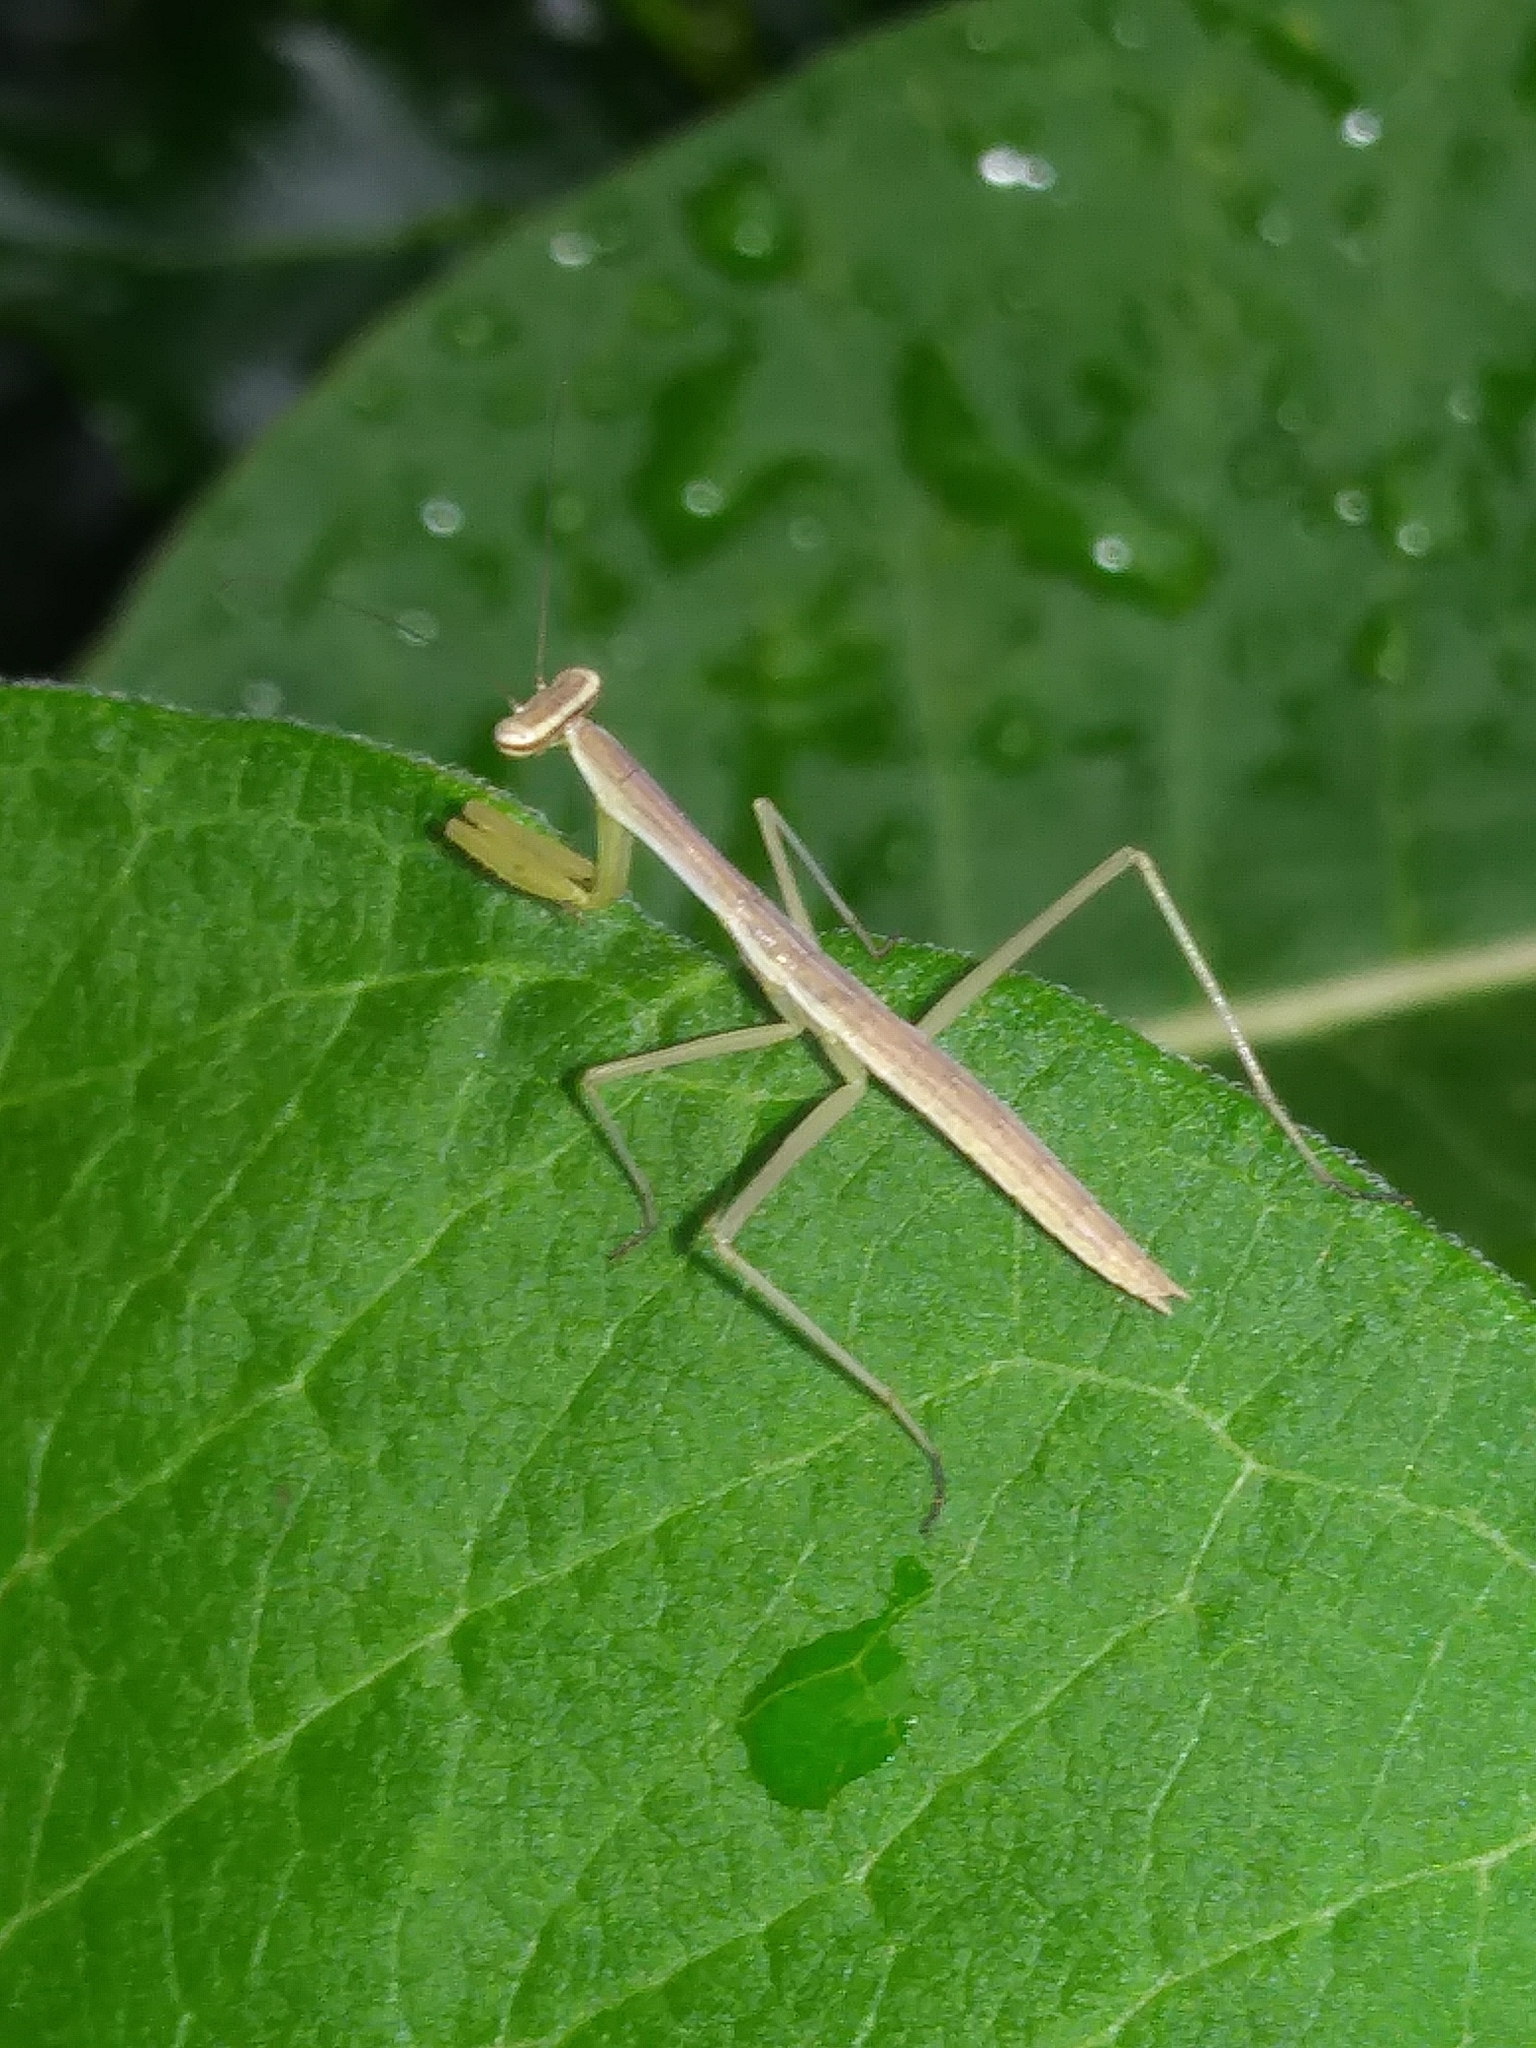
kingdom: Animalia
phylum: Arthropoda
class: Insecta
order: Mantodea
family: Mantidae
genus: Tenodera
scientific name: Tenodera sinensis
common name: Chinese mantis
